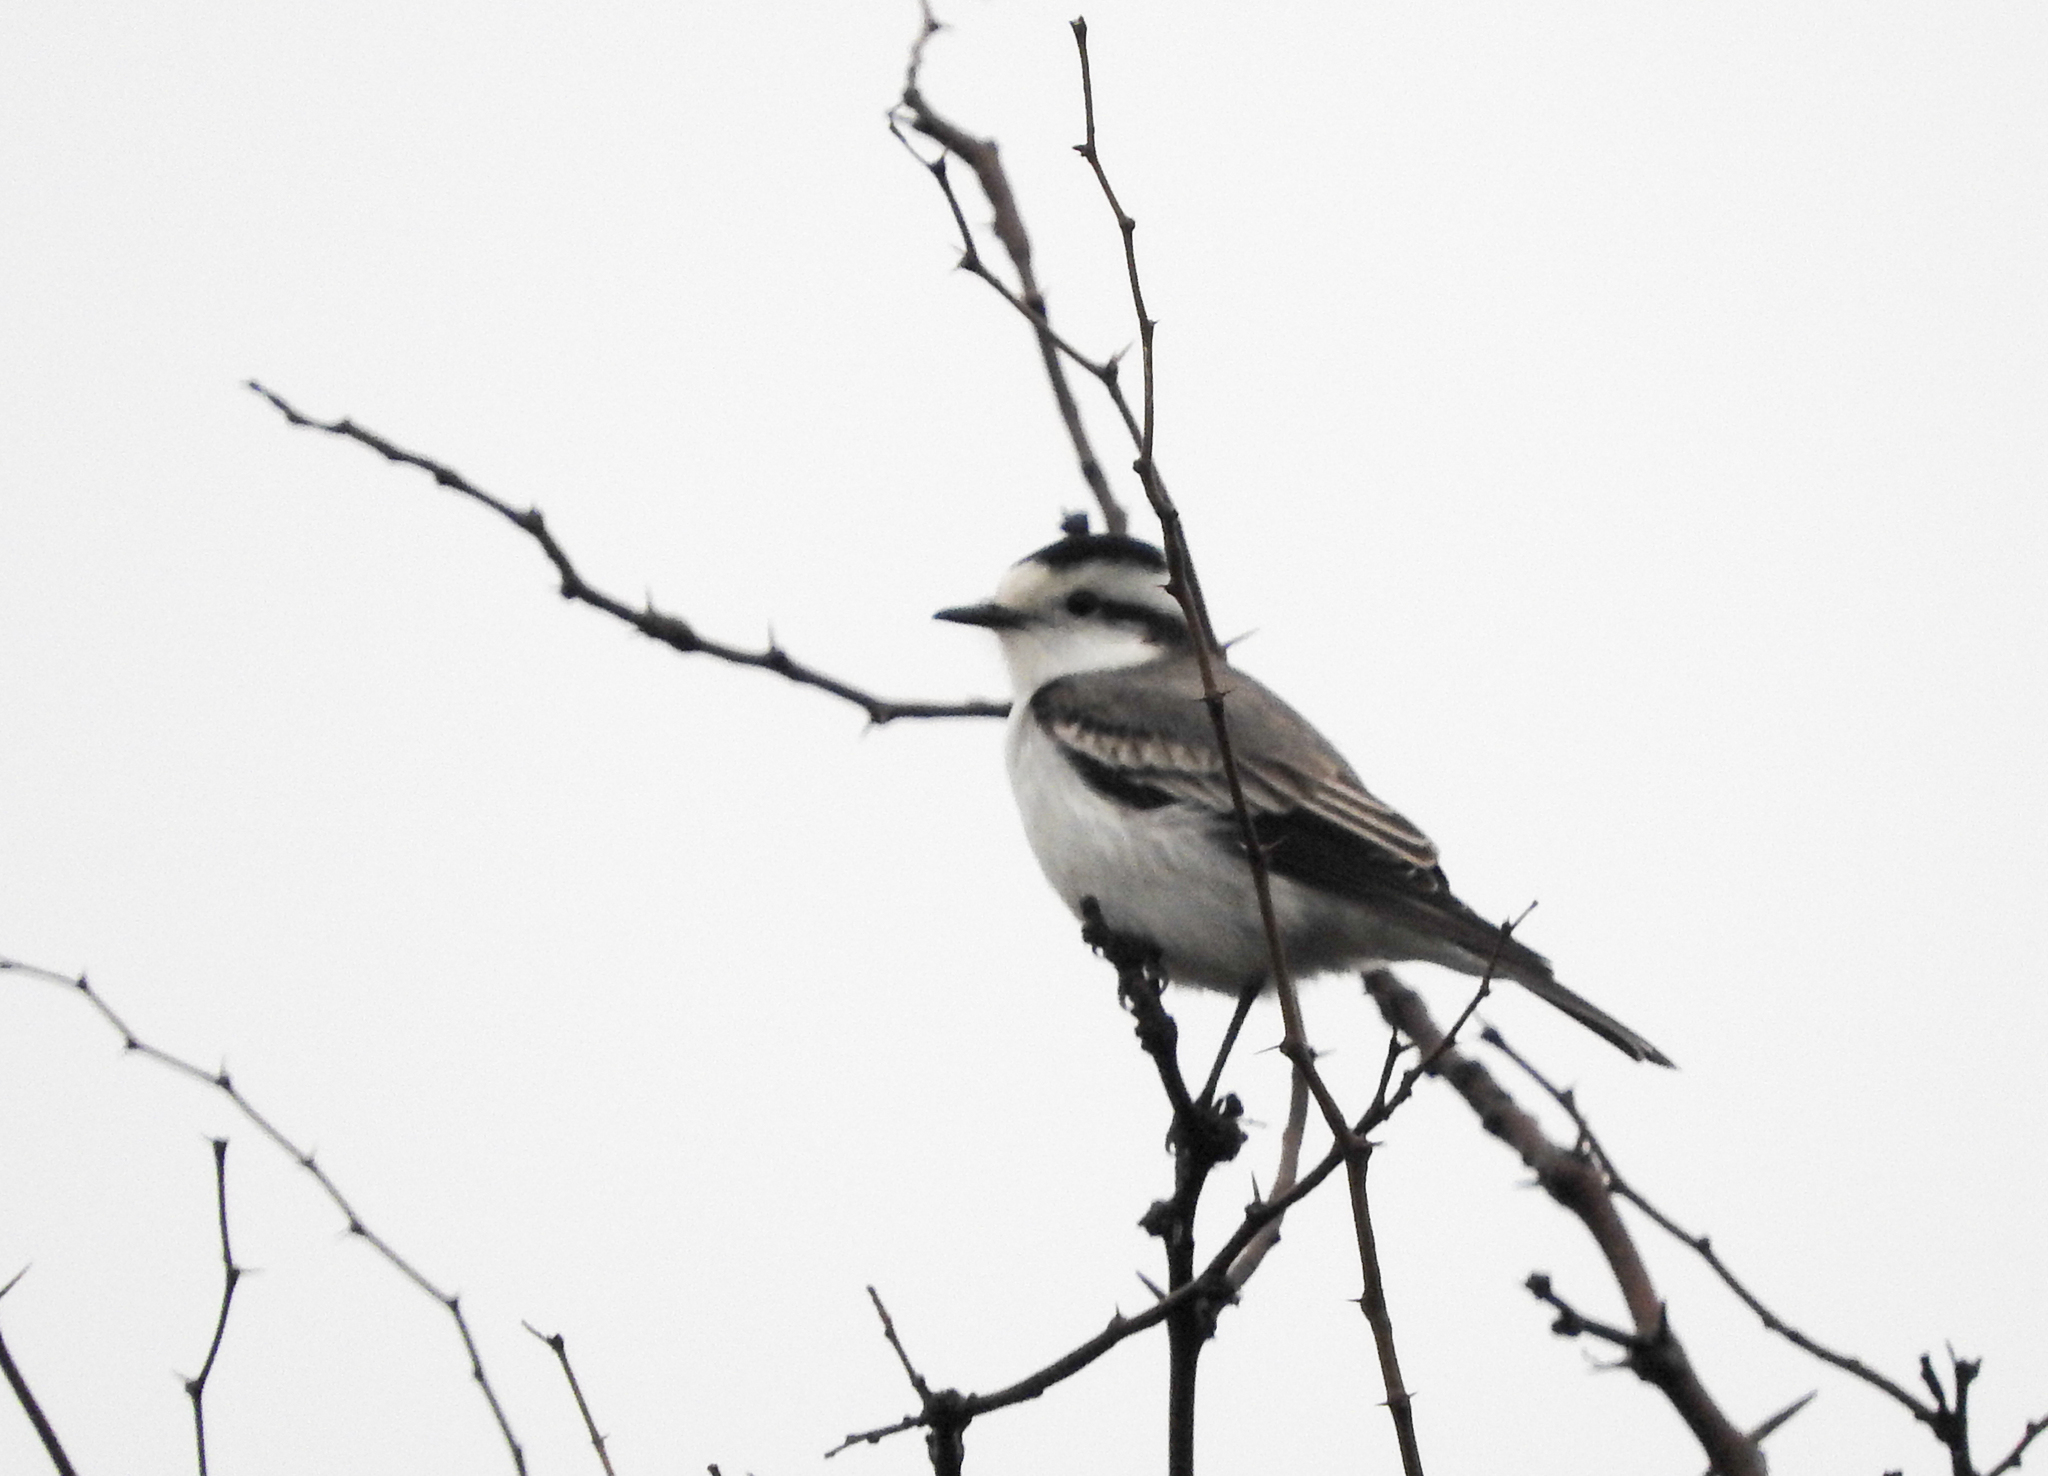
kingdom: Animalia
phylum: Chordata
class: Aves
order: Passeriformes
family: Tyrannidae
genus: Xolmis
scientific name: Xolmis coronatus
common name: Black-crowned monjita
